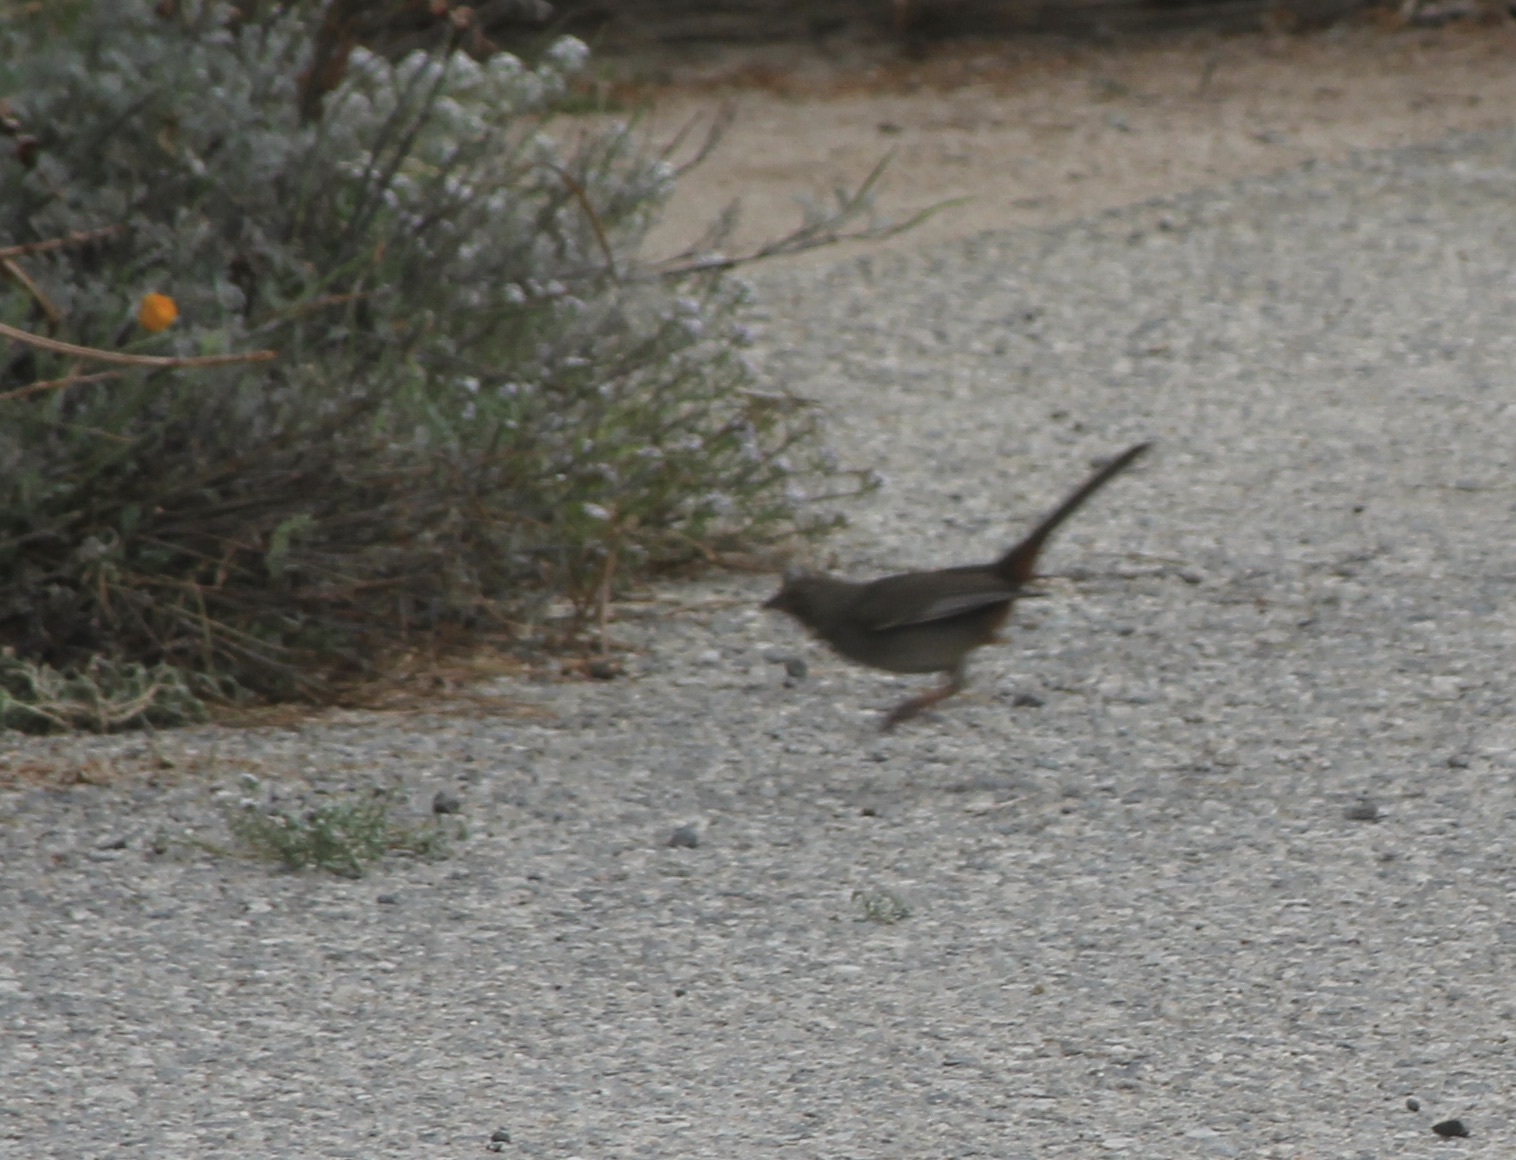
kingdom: Animalia
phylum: Chordata
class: Aves
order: Passeriformes
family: Passerellidae
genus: Melozone
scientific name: Melozone crissalis
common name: California towhee
